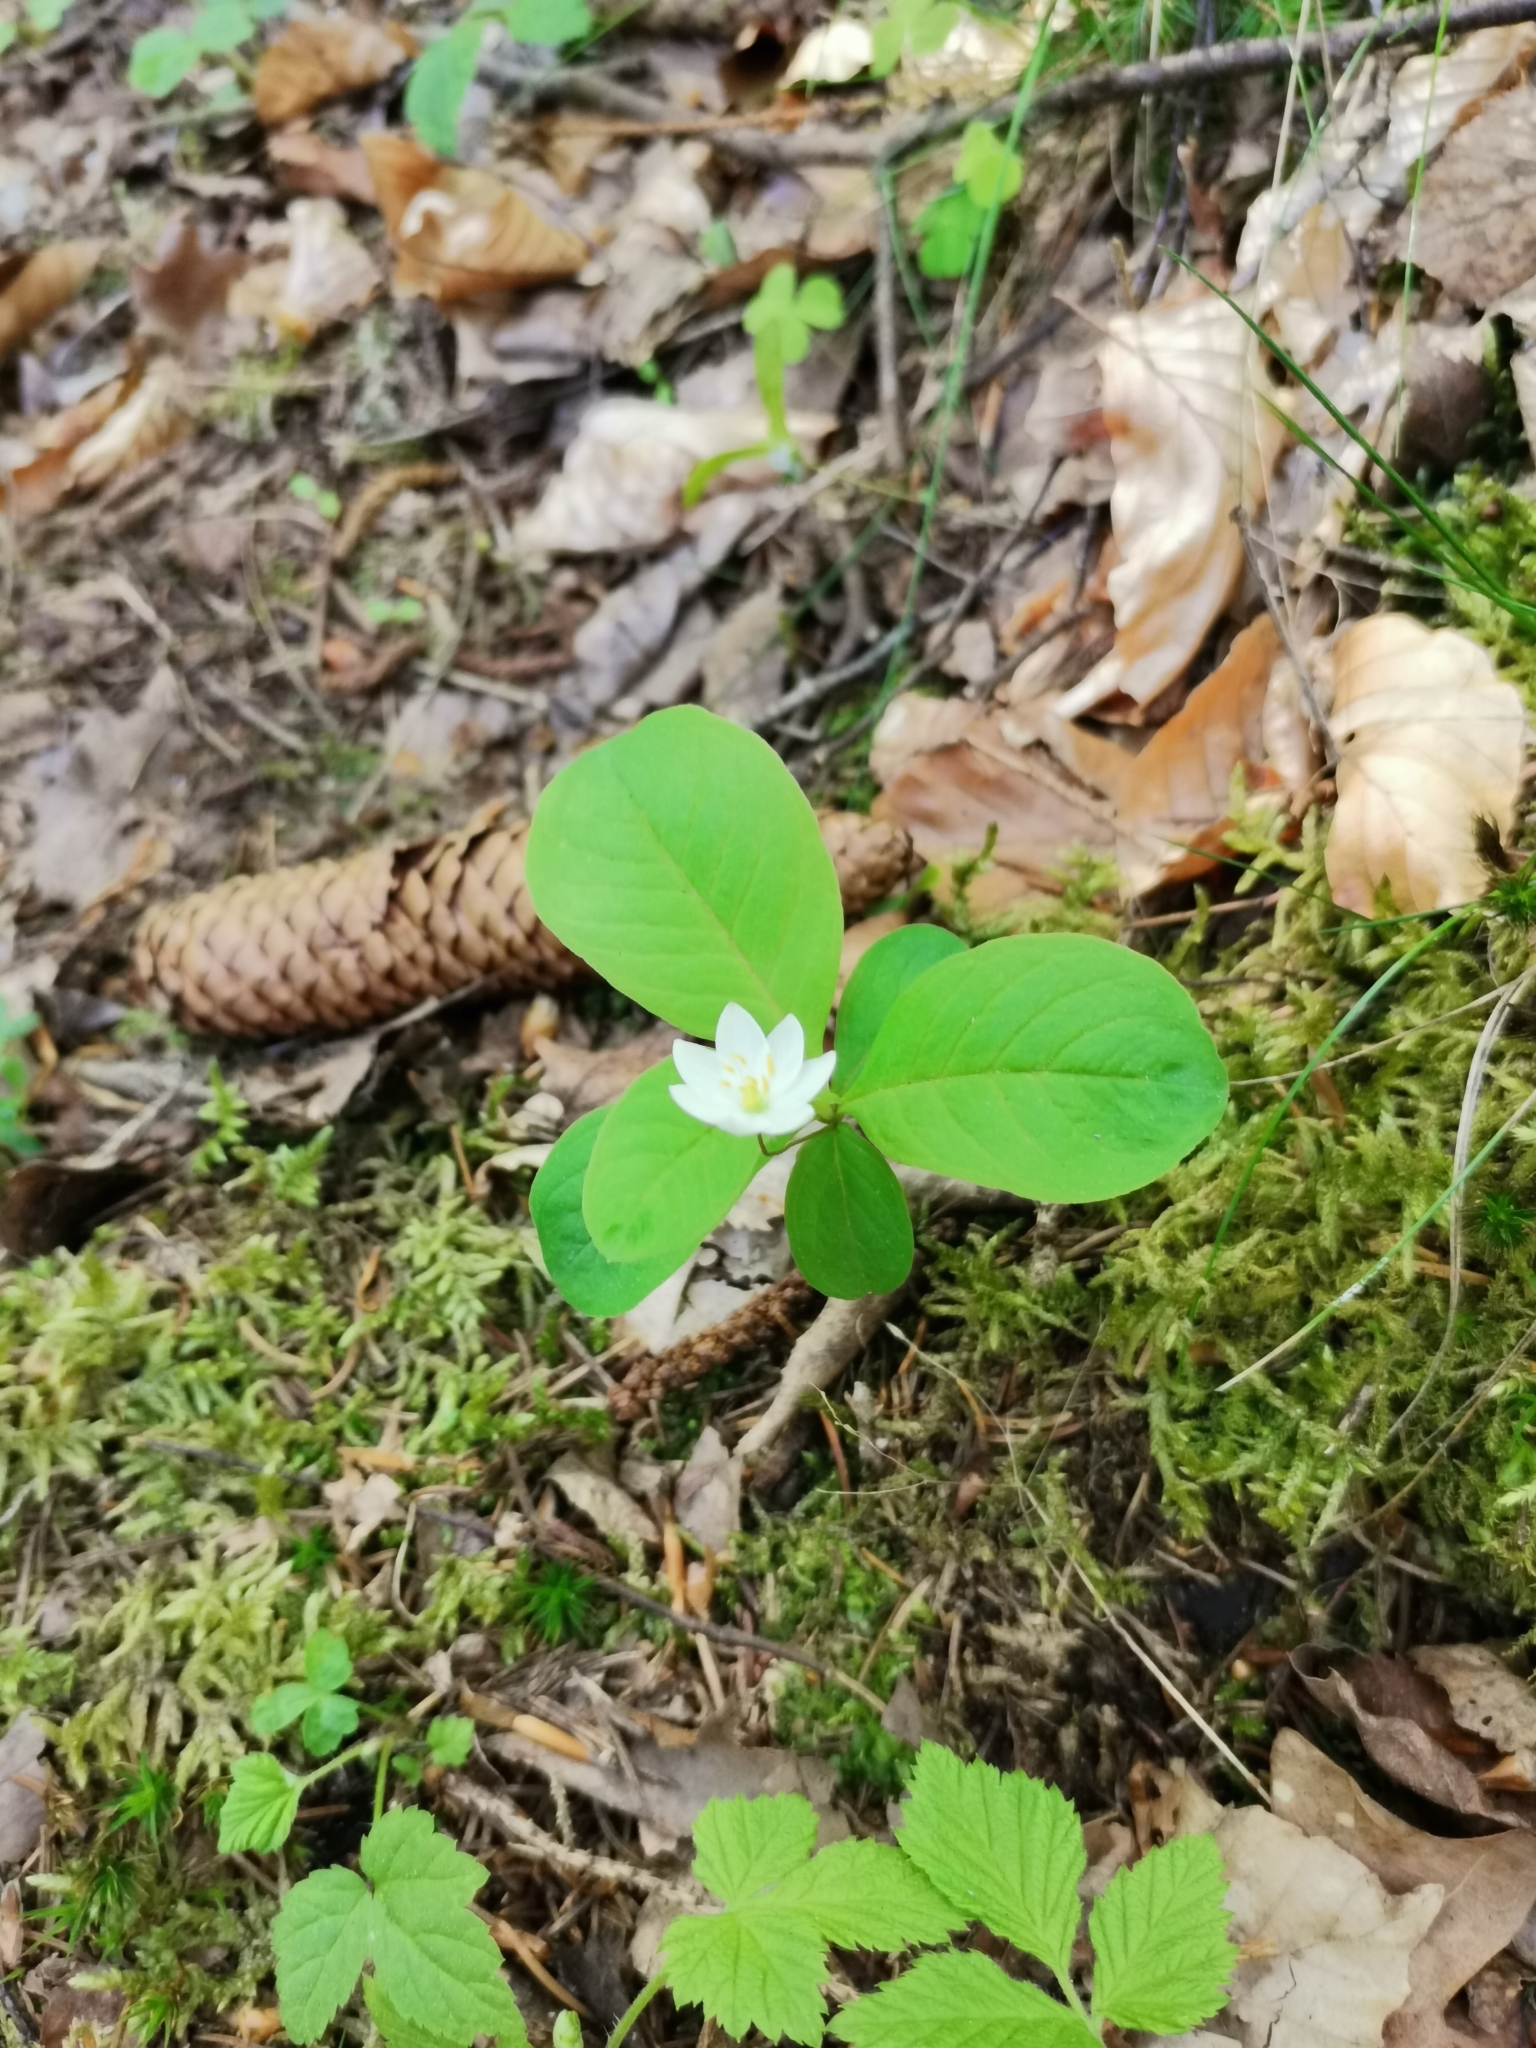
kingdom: Plantae
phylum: Tracheophyta
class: Magnoliopsida
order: Ericales
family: Primulaceae
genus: Lysimachia
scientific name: Lysimachia europaea
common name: Arctic starflower
